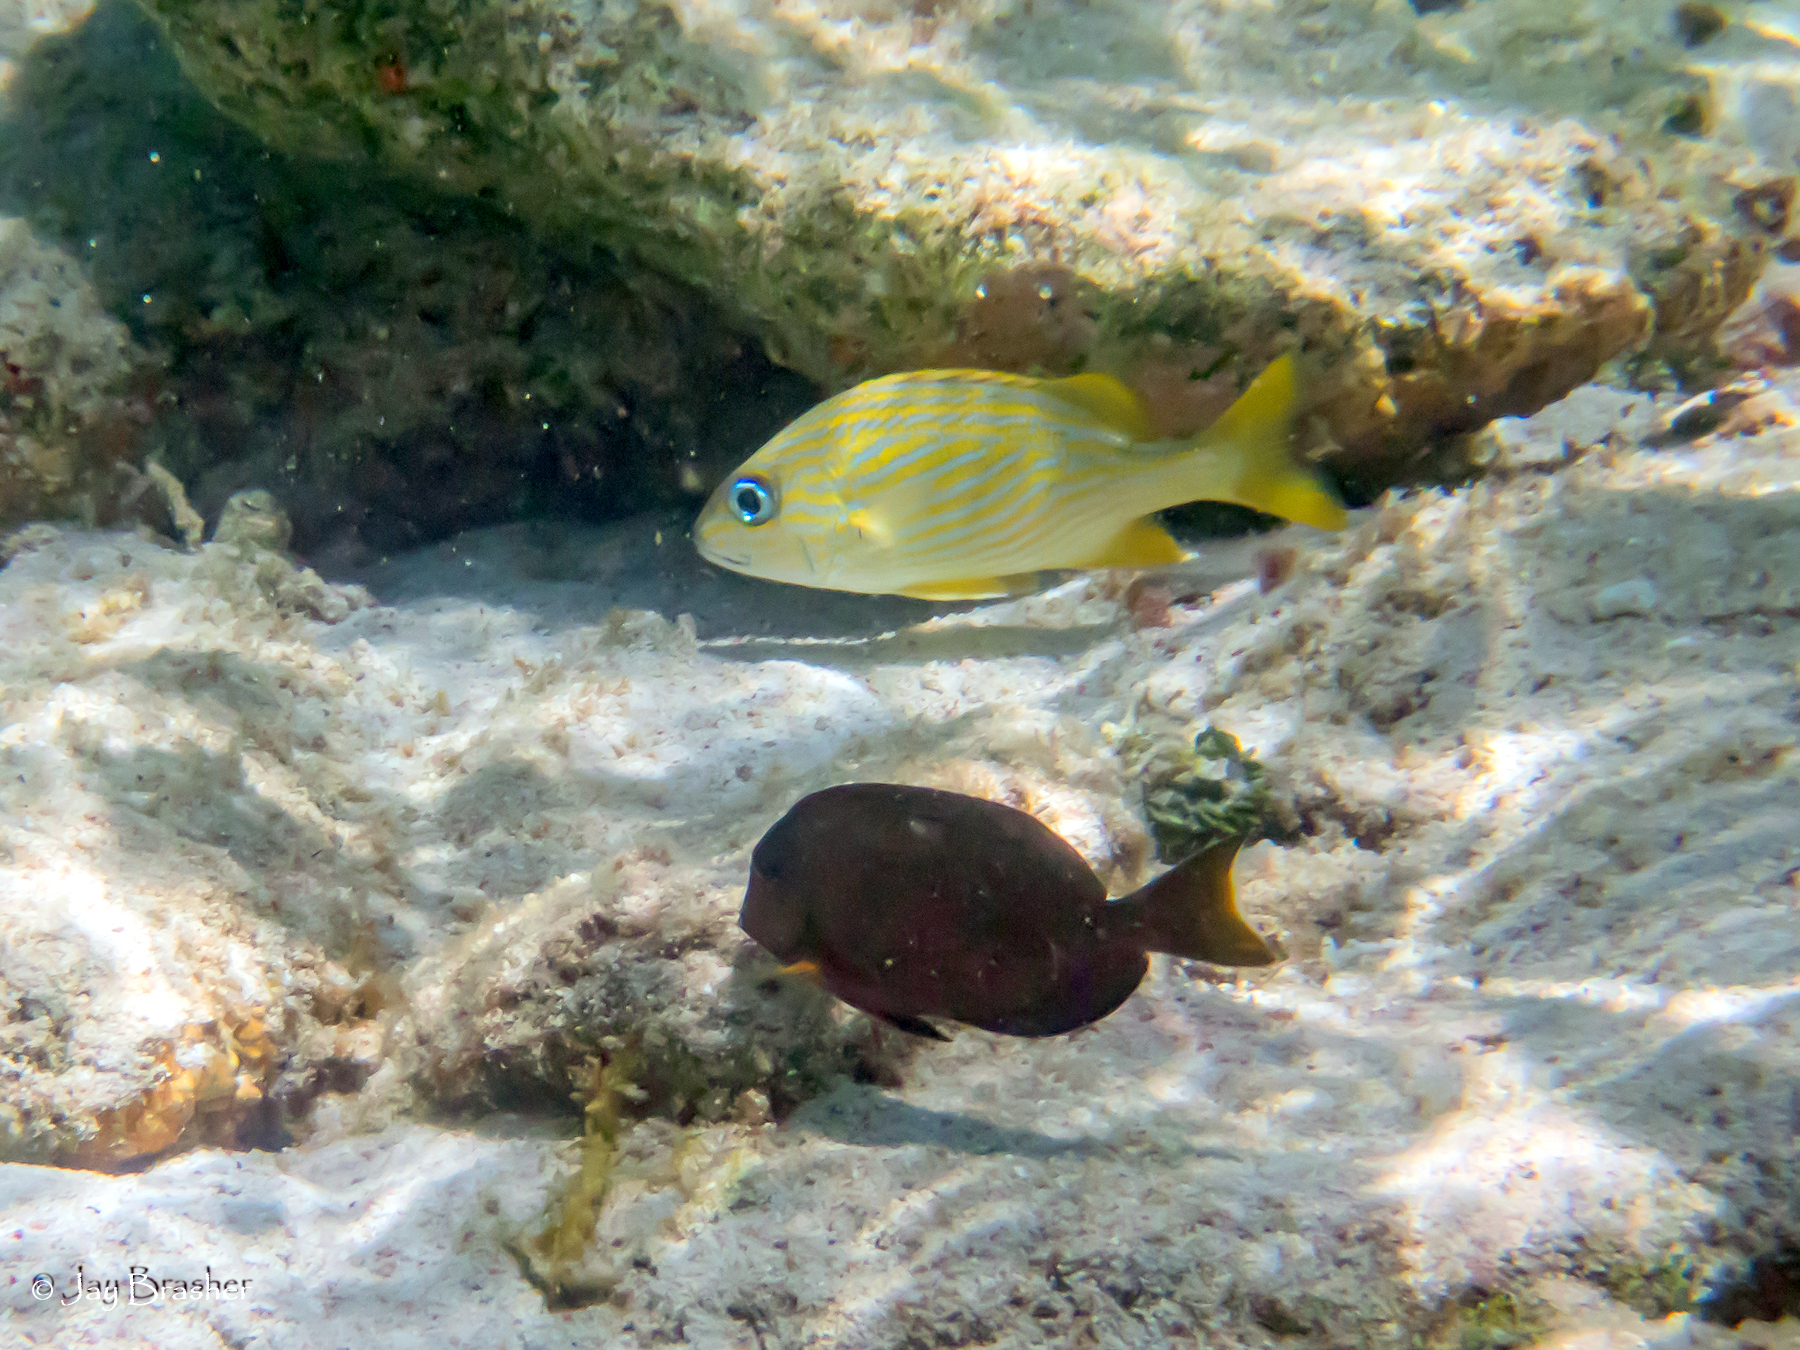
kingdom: Animalia
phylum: Chordata
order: Perciformes
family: Acanthuridae
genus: Acanthurus
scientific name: Acanthurus bahianus
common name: Ocean surgeon
